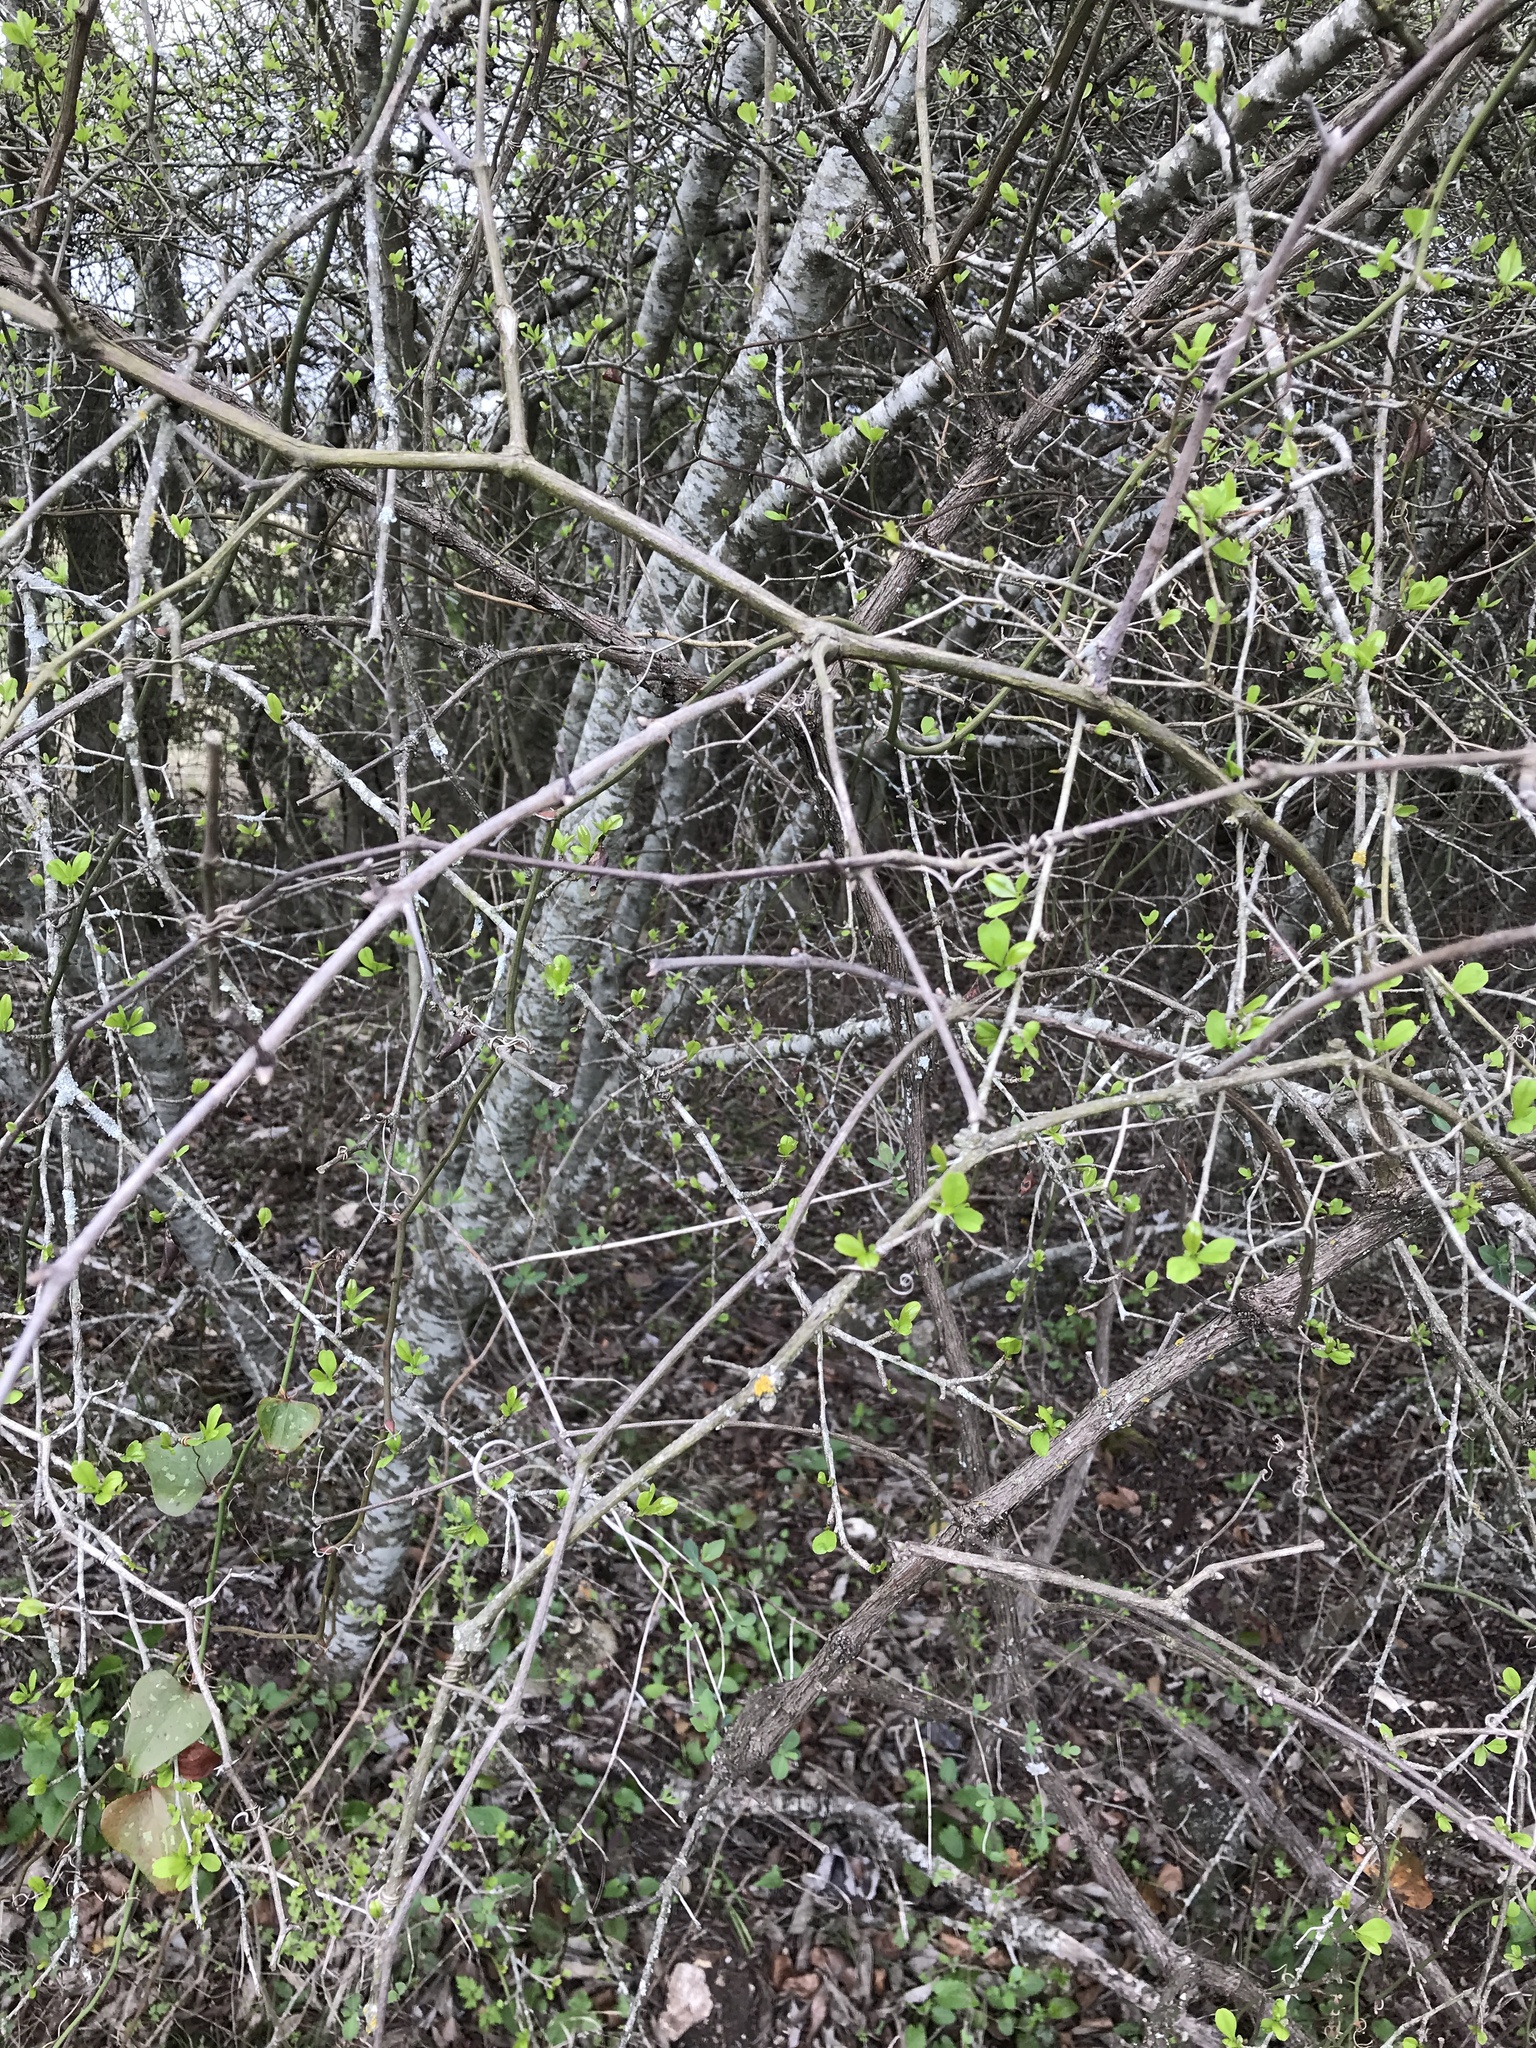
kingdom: Plantae
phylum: Tracheophyta
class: Magnoliopsida
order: Aquifoliales
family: Aquifoliaceae
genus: Ilex
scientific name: Ilex decidua
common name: Possum-haw
